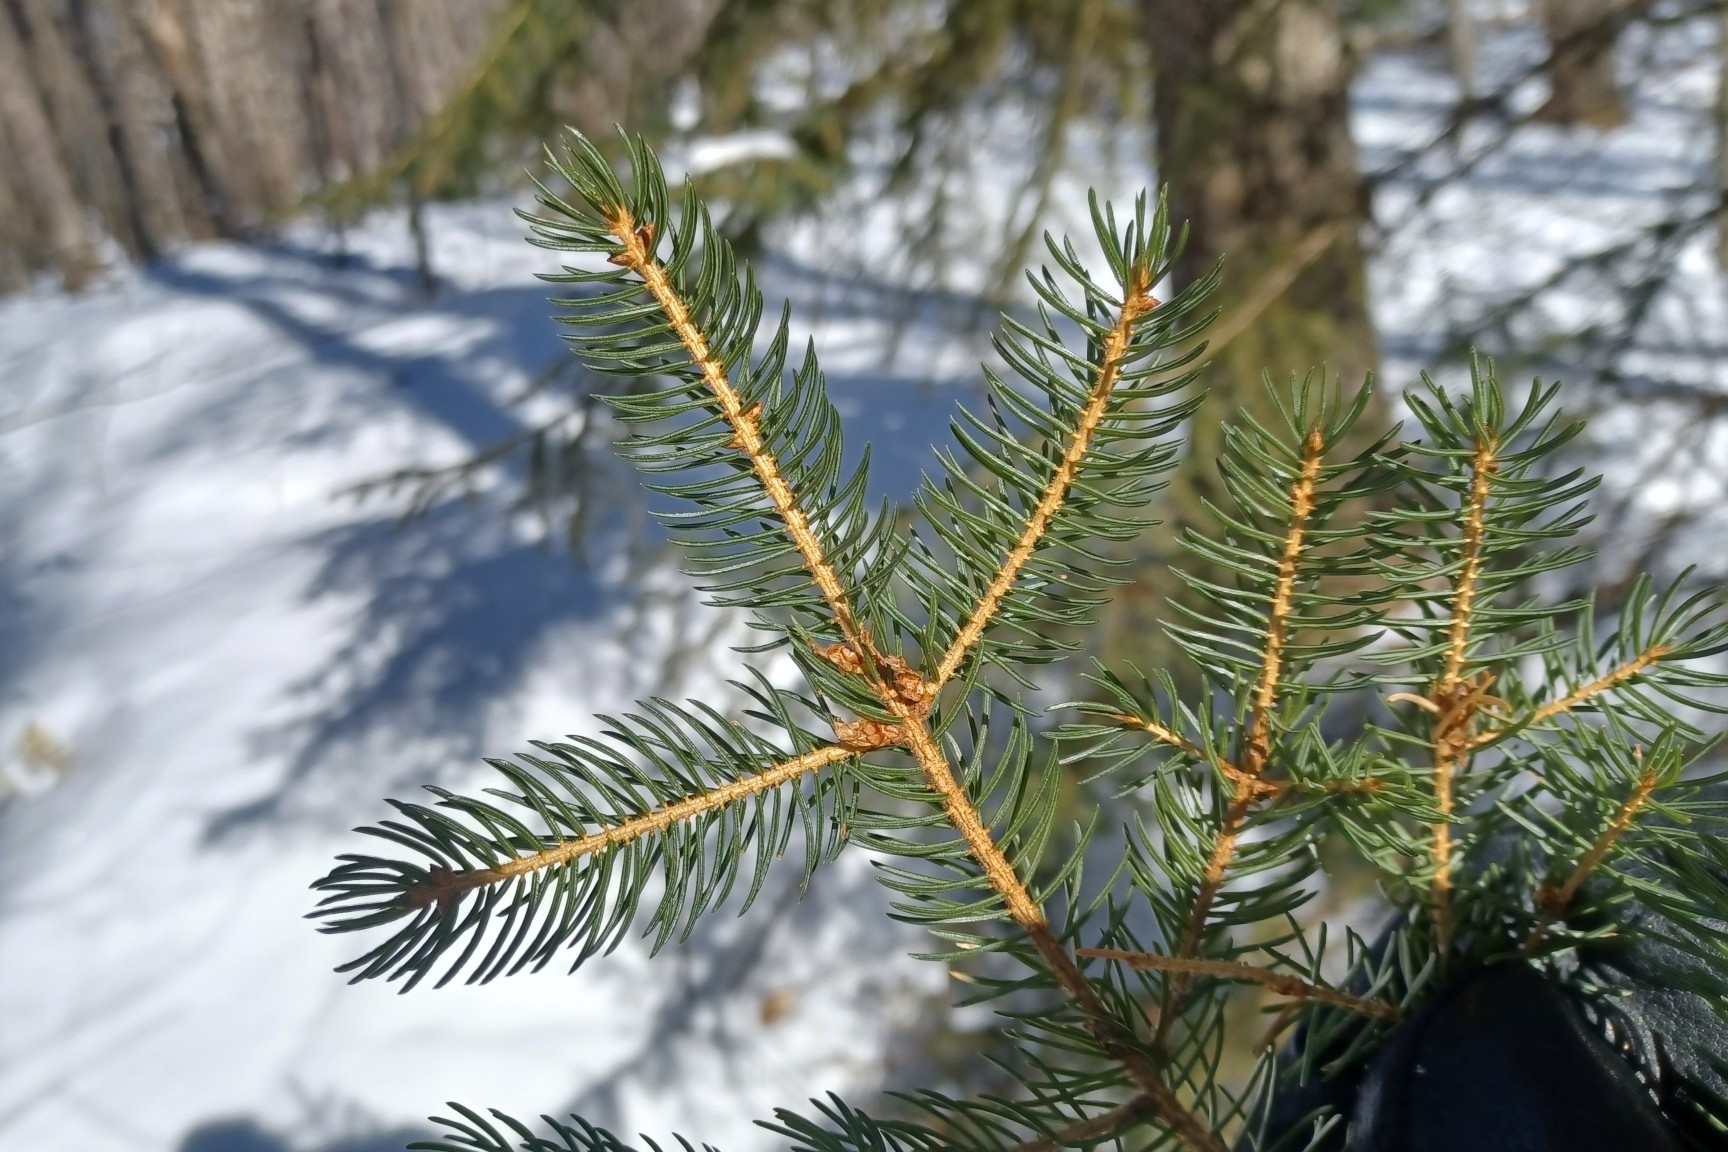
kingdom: Plantae
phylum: Tracheophyta
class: Pinopsida
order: Pinales
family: Pinaceae
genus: Picea
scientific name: Picea rubens
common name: Red spruce
